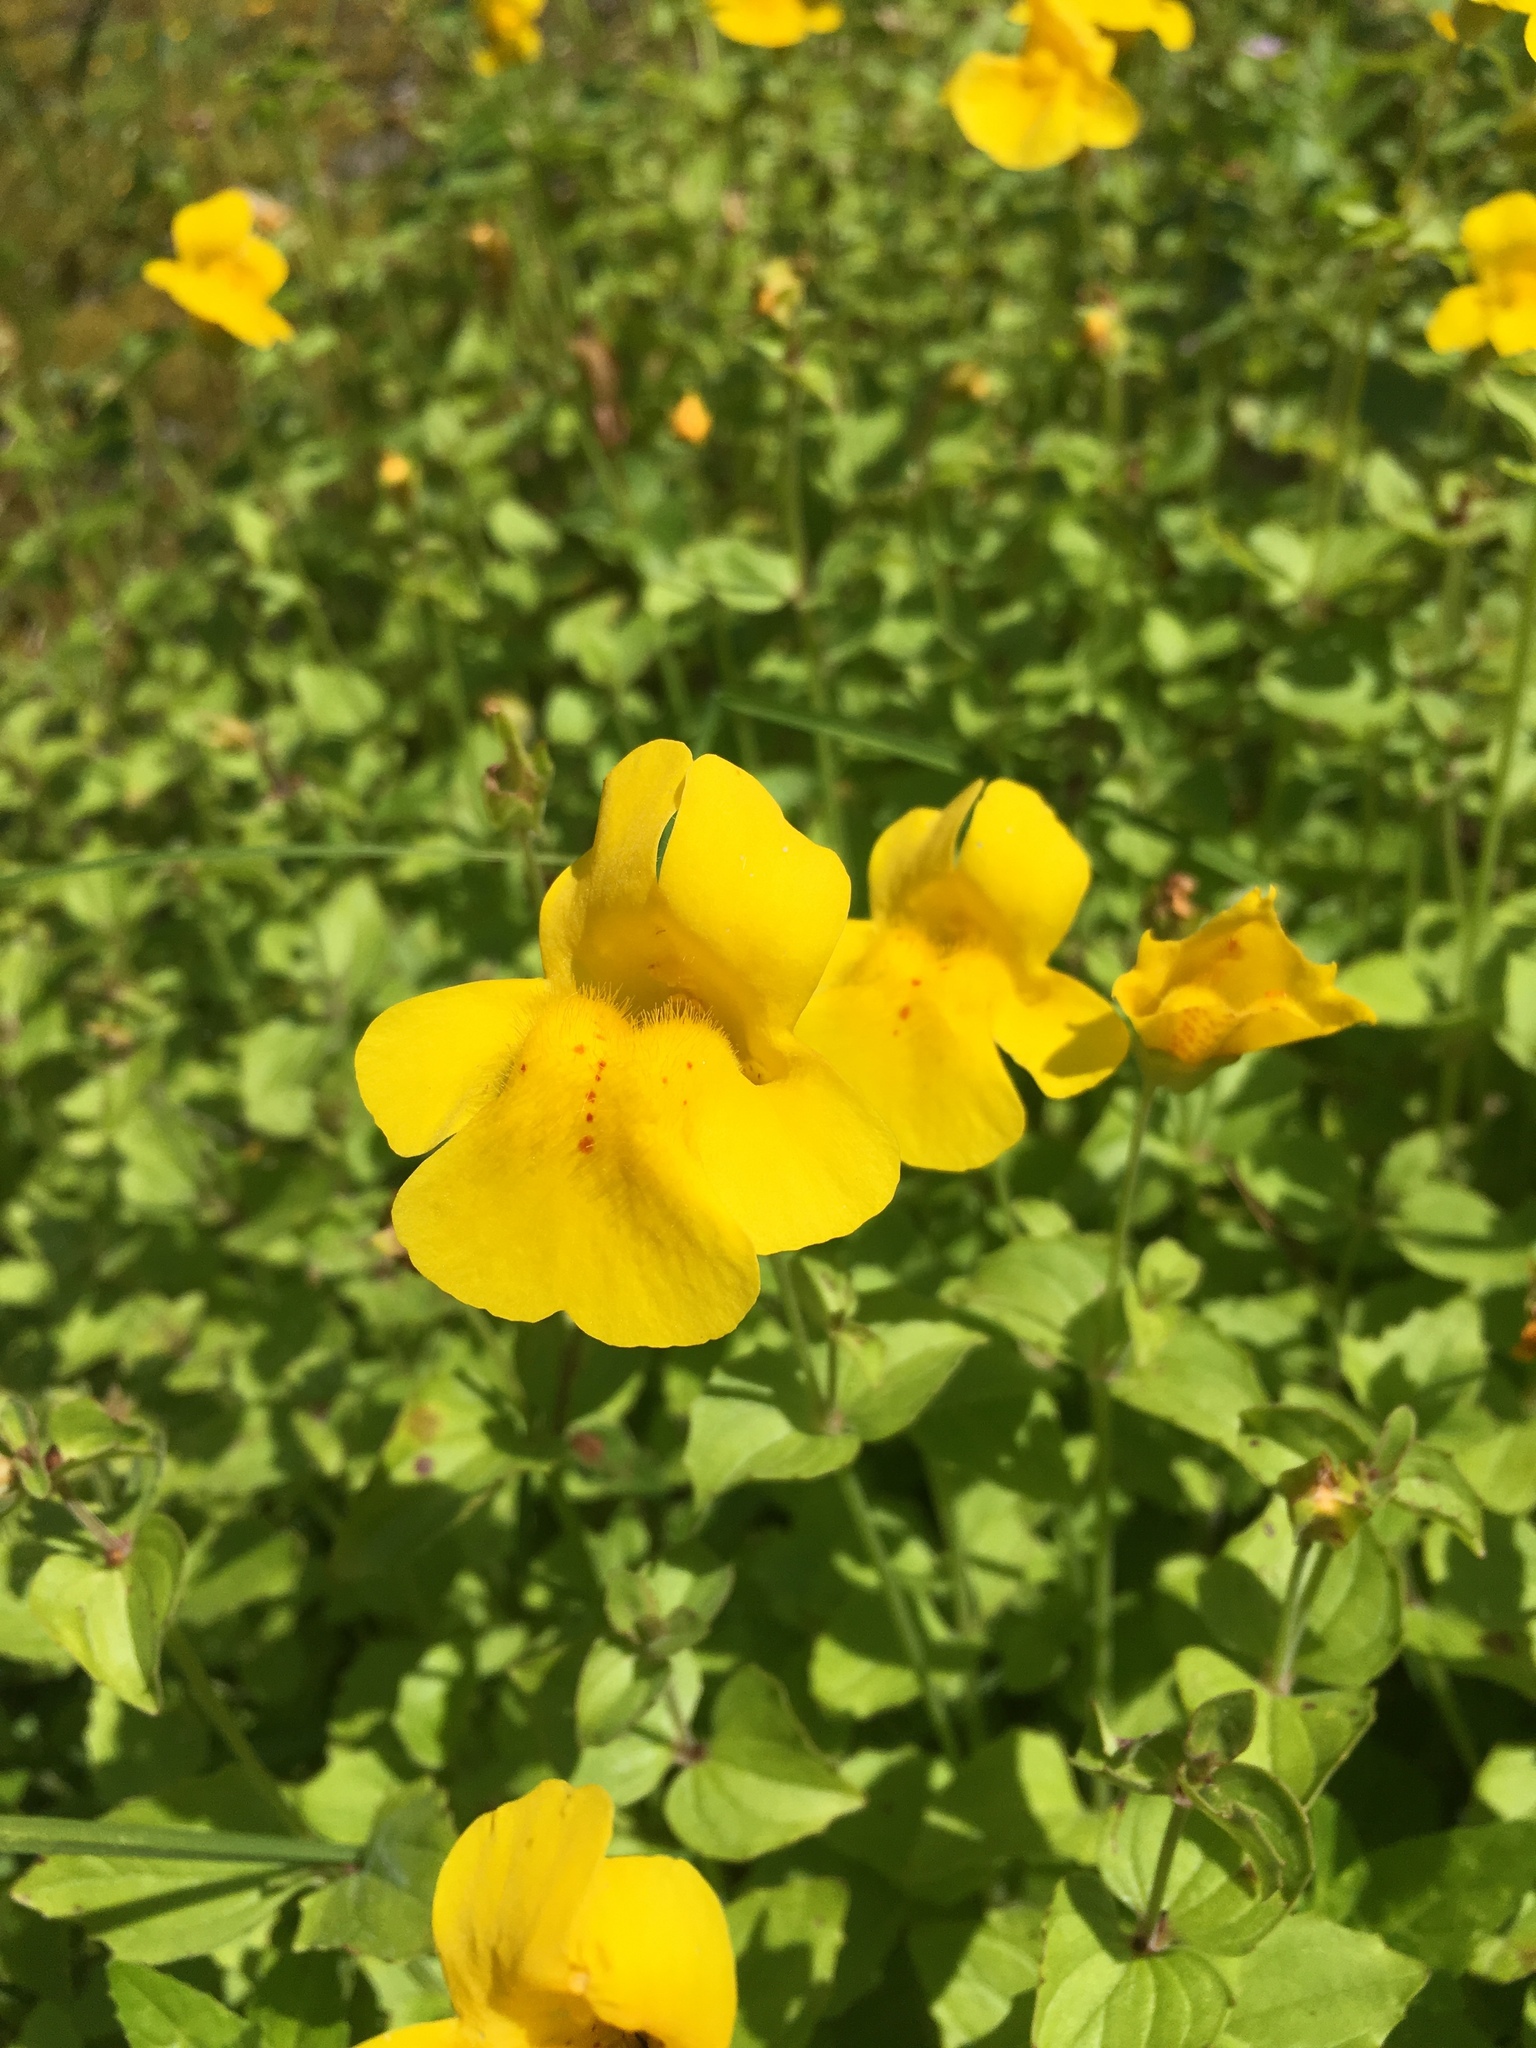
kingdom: Plantae
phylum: Tracheophyta
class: Magnoliopsida
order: Lamiales
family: Phrymaceae
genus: Erythranthe
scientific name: Erythranthe guttata
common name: Monkeyflower
